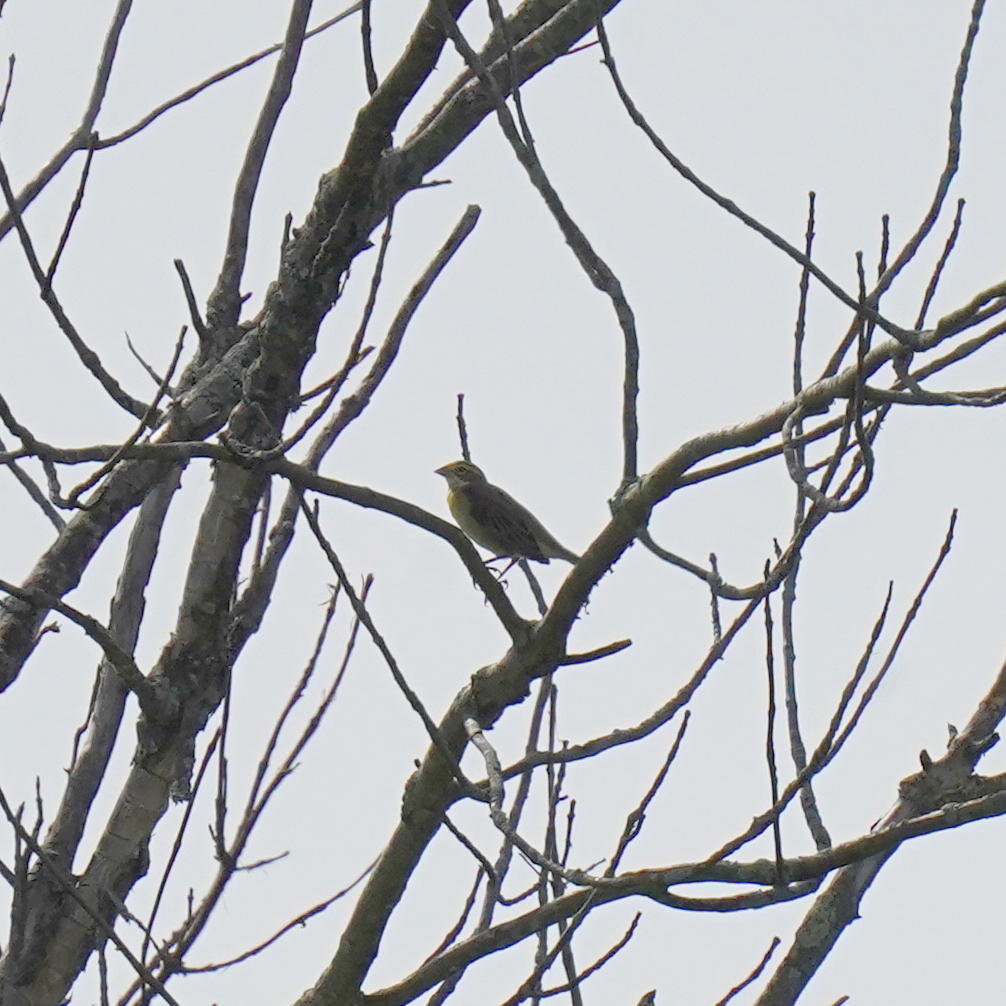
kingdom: Animalia
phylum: Chordata
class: Aves
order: Passeriformes
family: Cardinalidae
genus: Spiza
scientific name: Spiza americana
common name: Dickcissel
